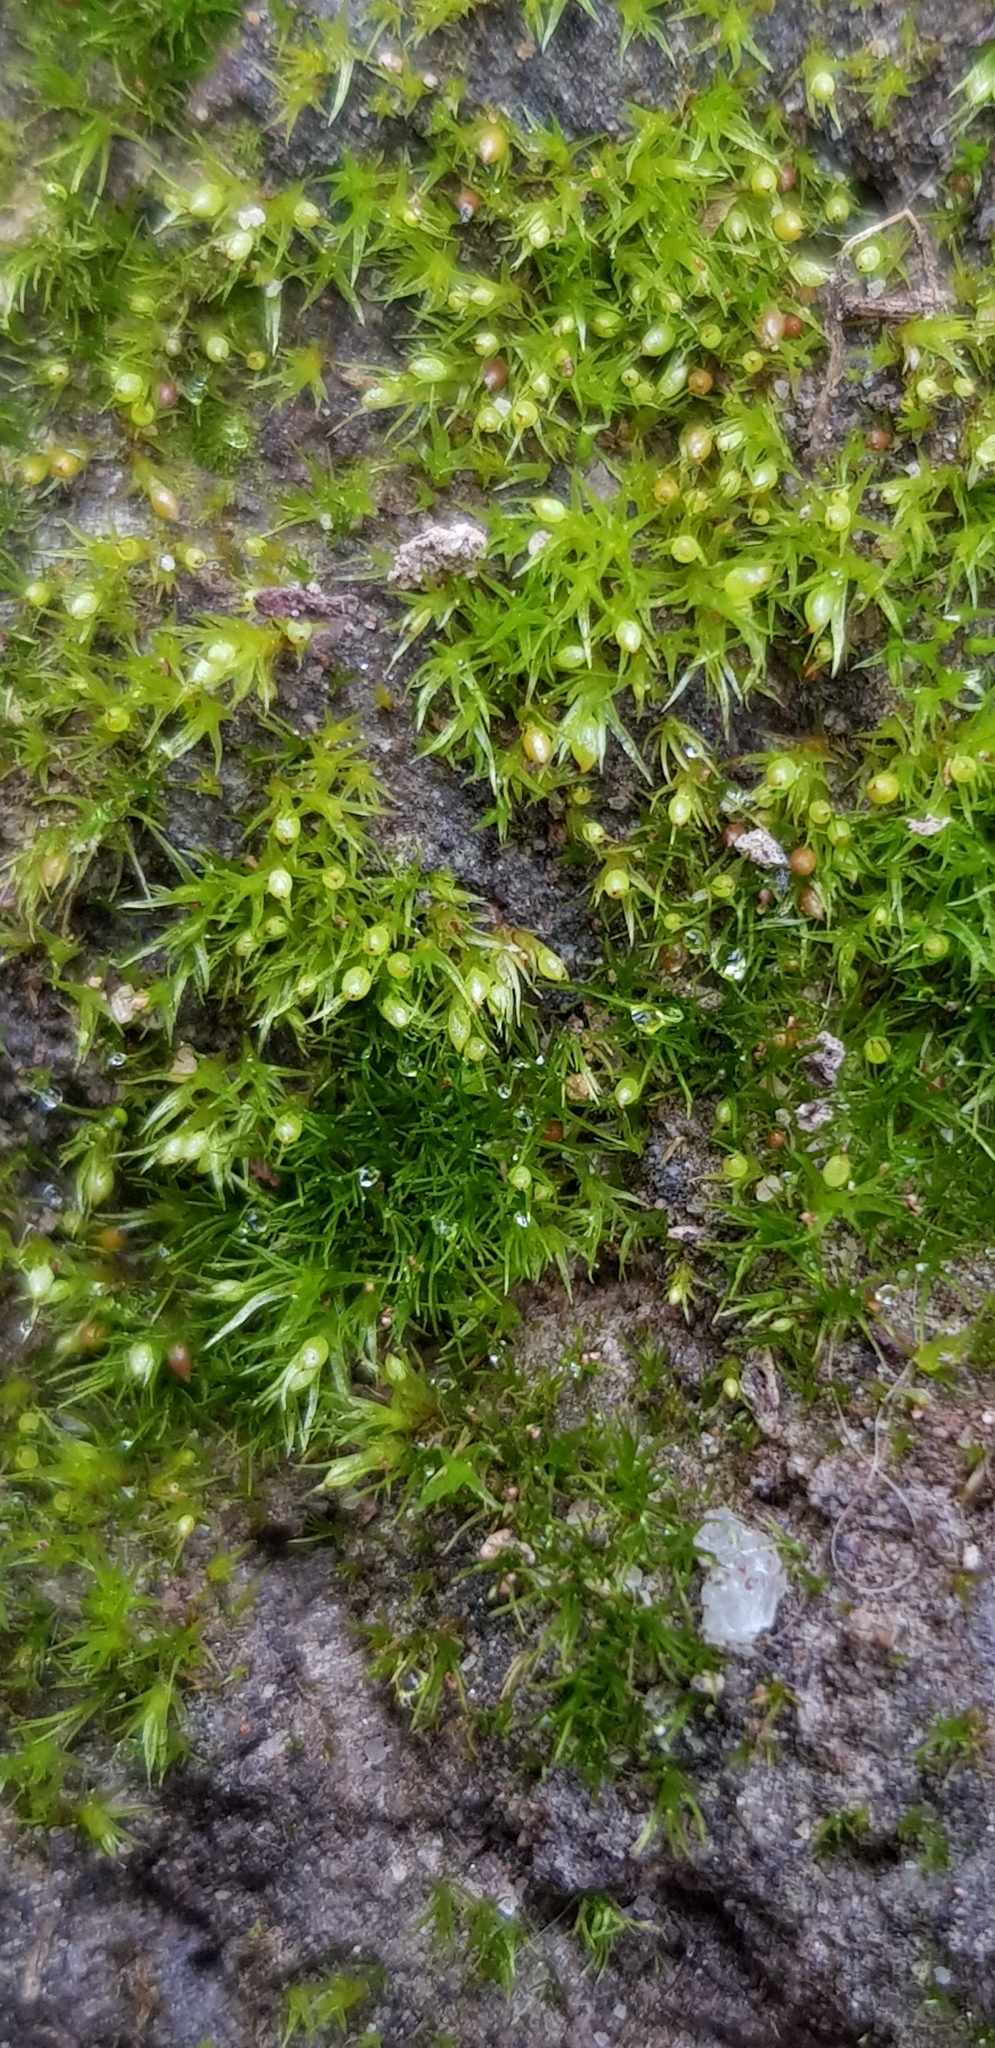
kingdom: Plantae
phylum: Bryophyta
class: Bryopsida
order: Dicranales
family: Ditrichaceae
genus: Pseudephemerum
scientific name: Pseudephemerum nitidum
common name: Delicate earth-moss
